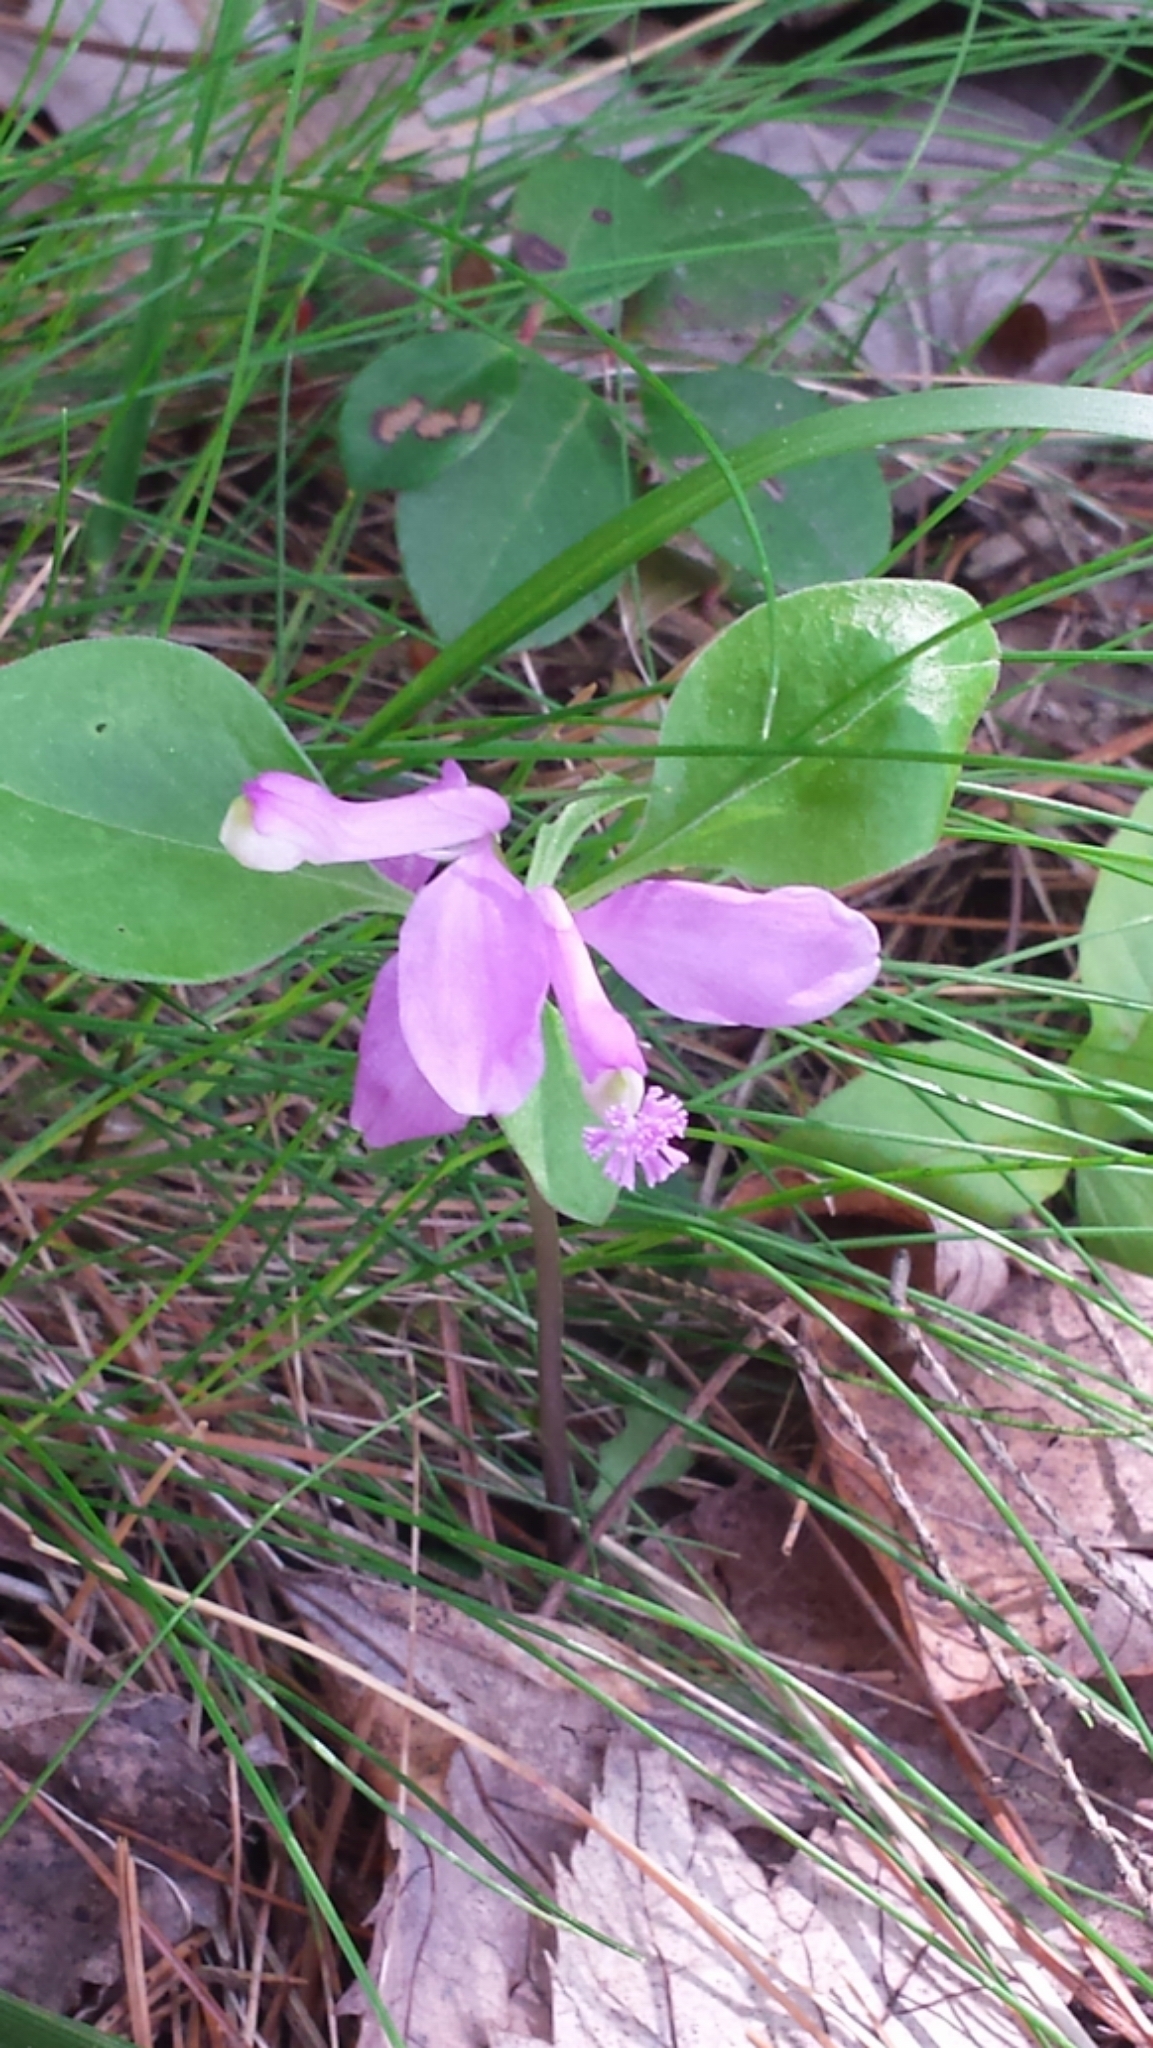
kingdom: Plantae
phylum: Tracheophyta
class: Magnoliopsida
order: Fabales
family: Polygalaceae
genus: Polygaloides
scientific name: Polygaloides paucifolia
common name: Bird-on-the-wing
